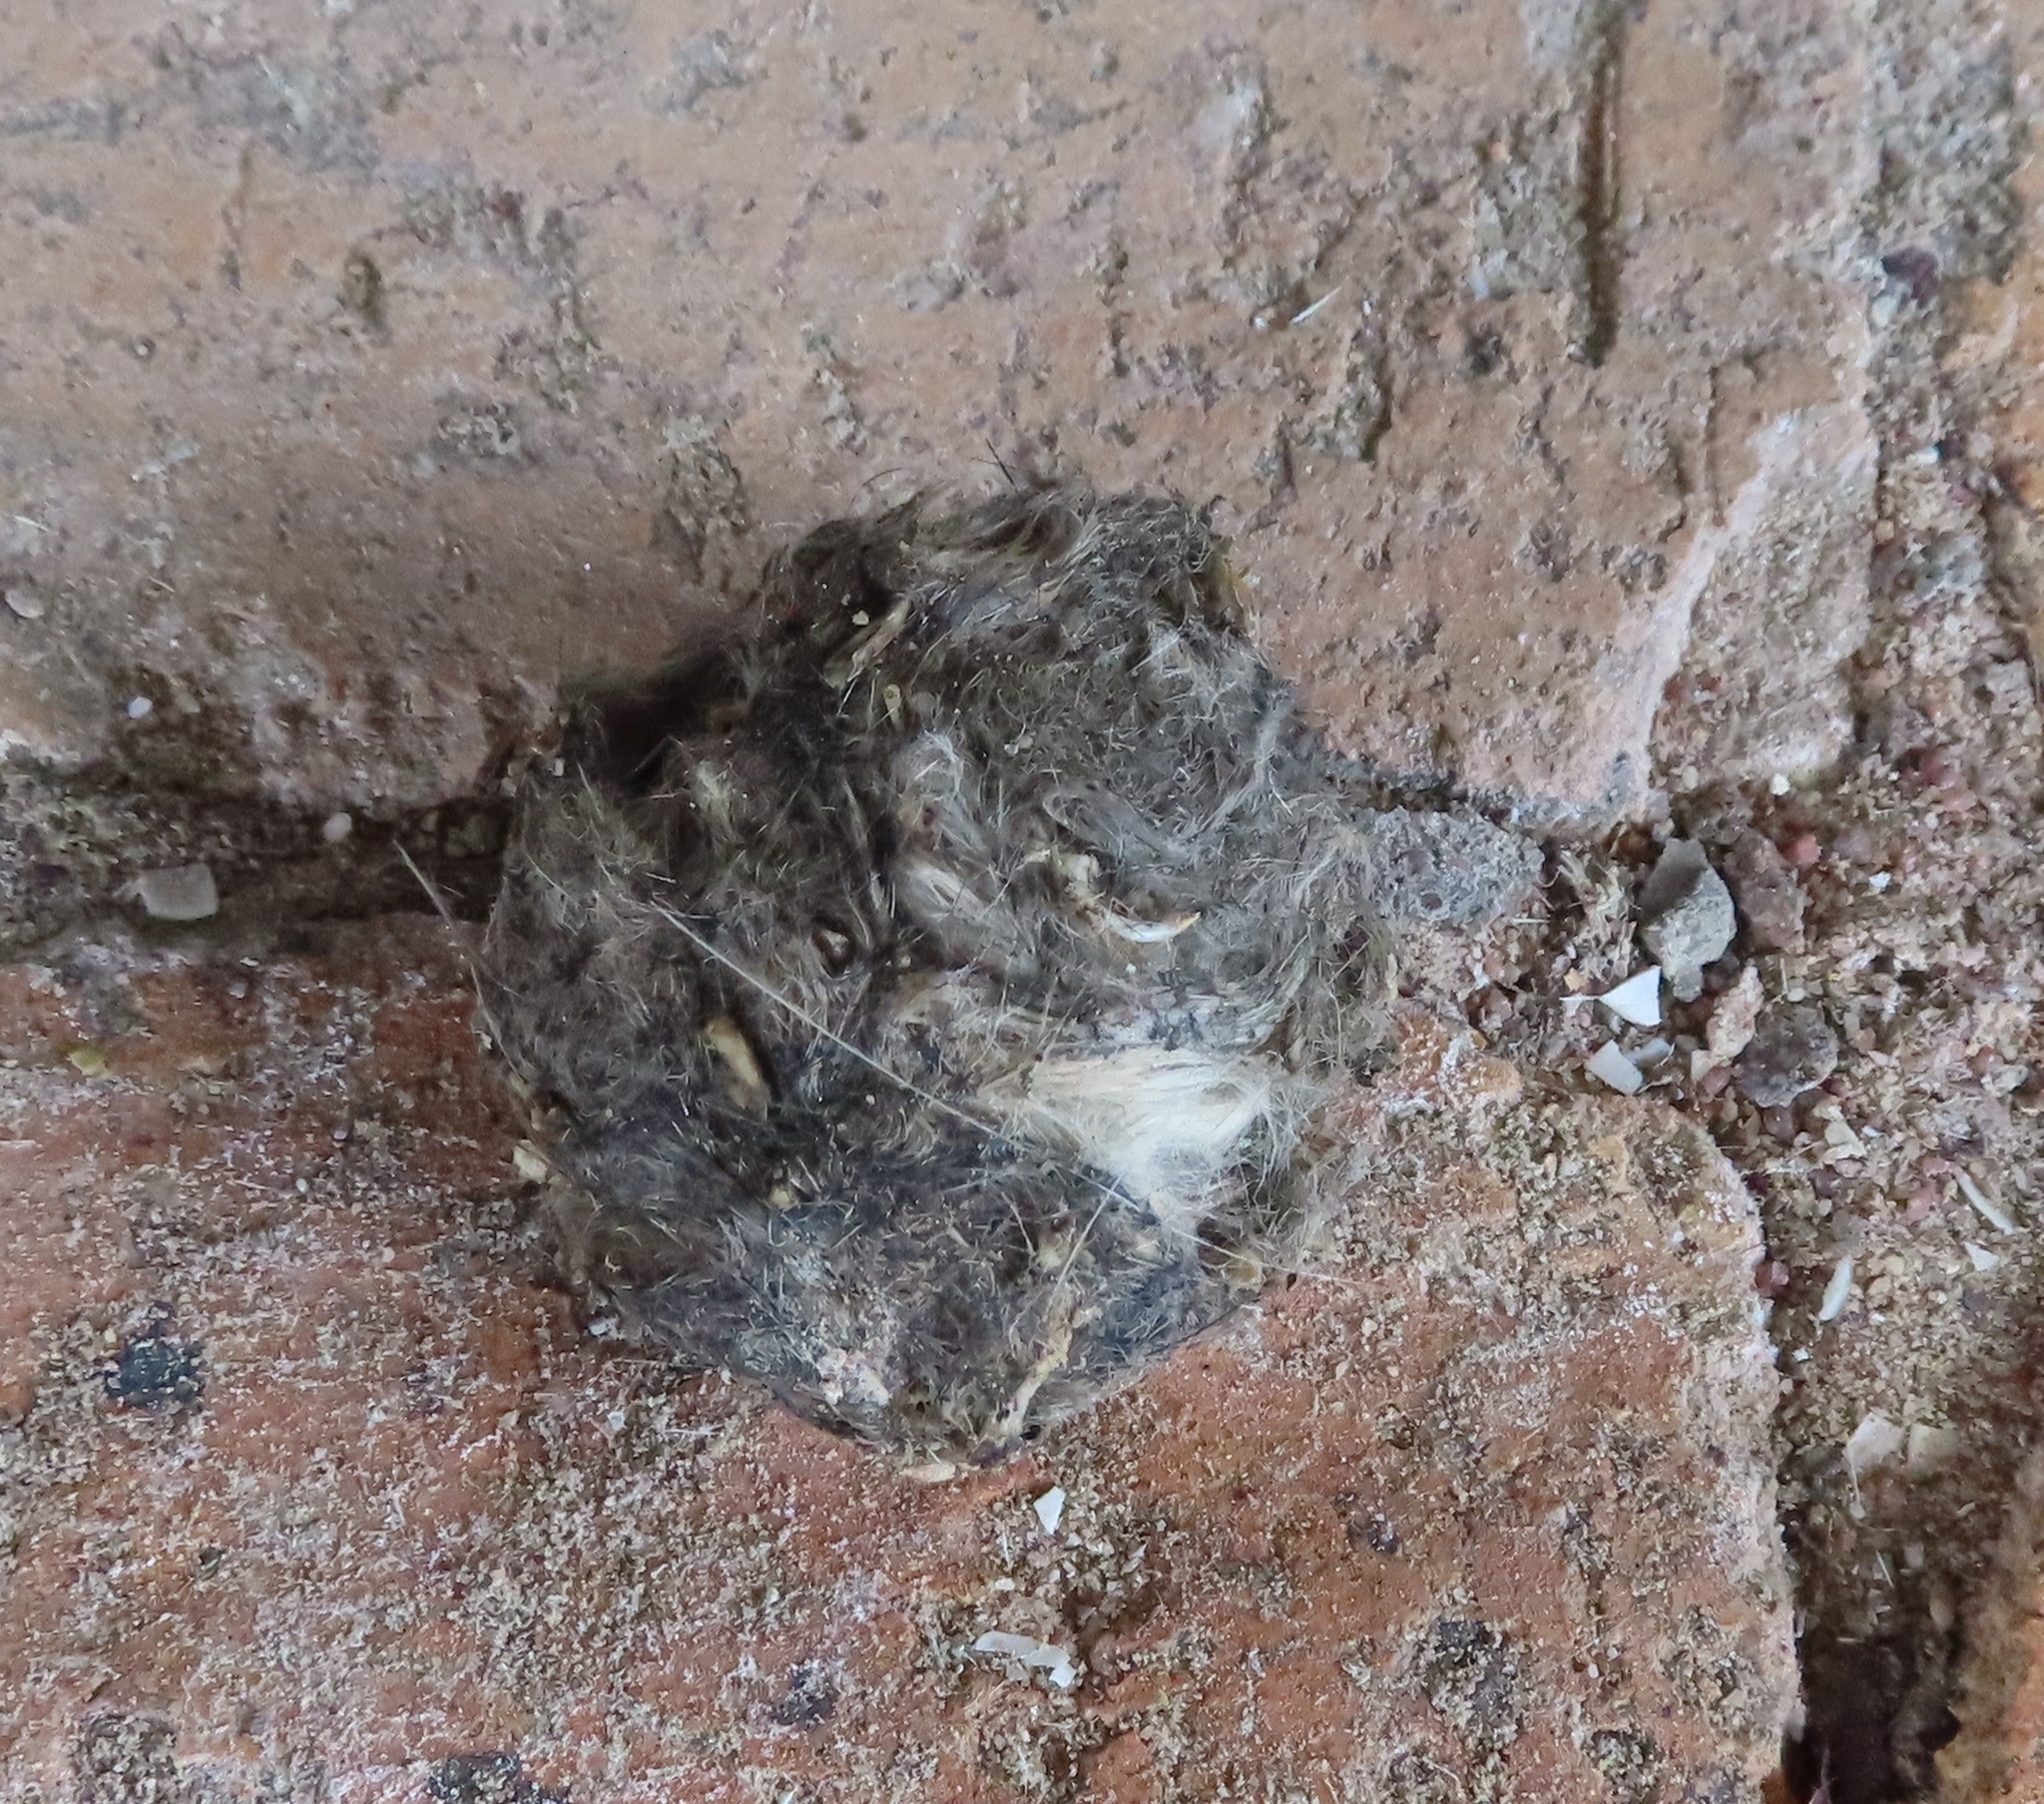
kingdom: Animalia
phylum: Chordata
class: Aves
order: Strigiformes
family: Tytonidae
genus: Tyto
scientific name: Tyto alba
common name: Barn owl
